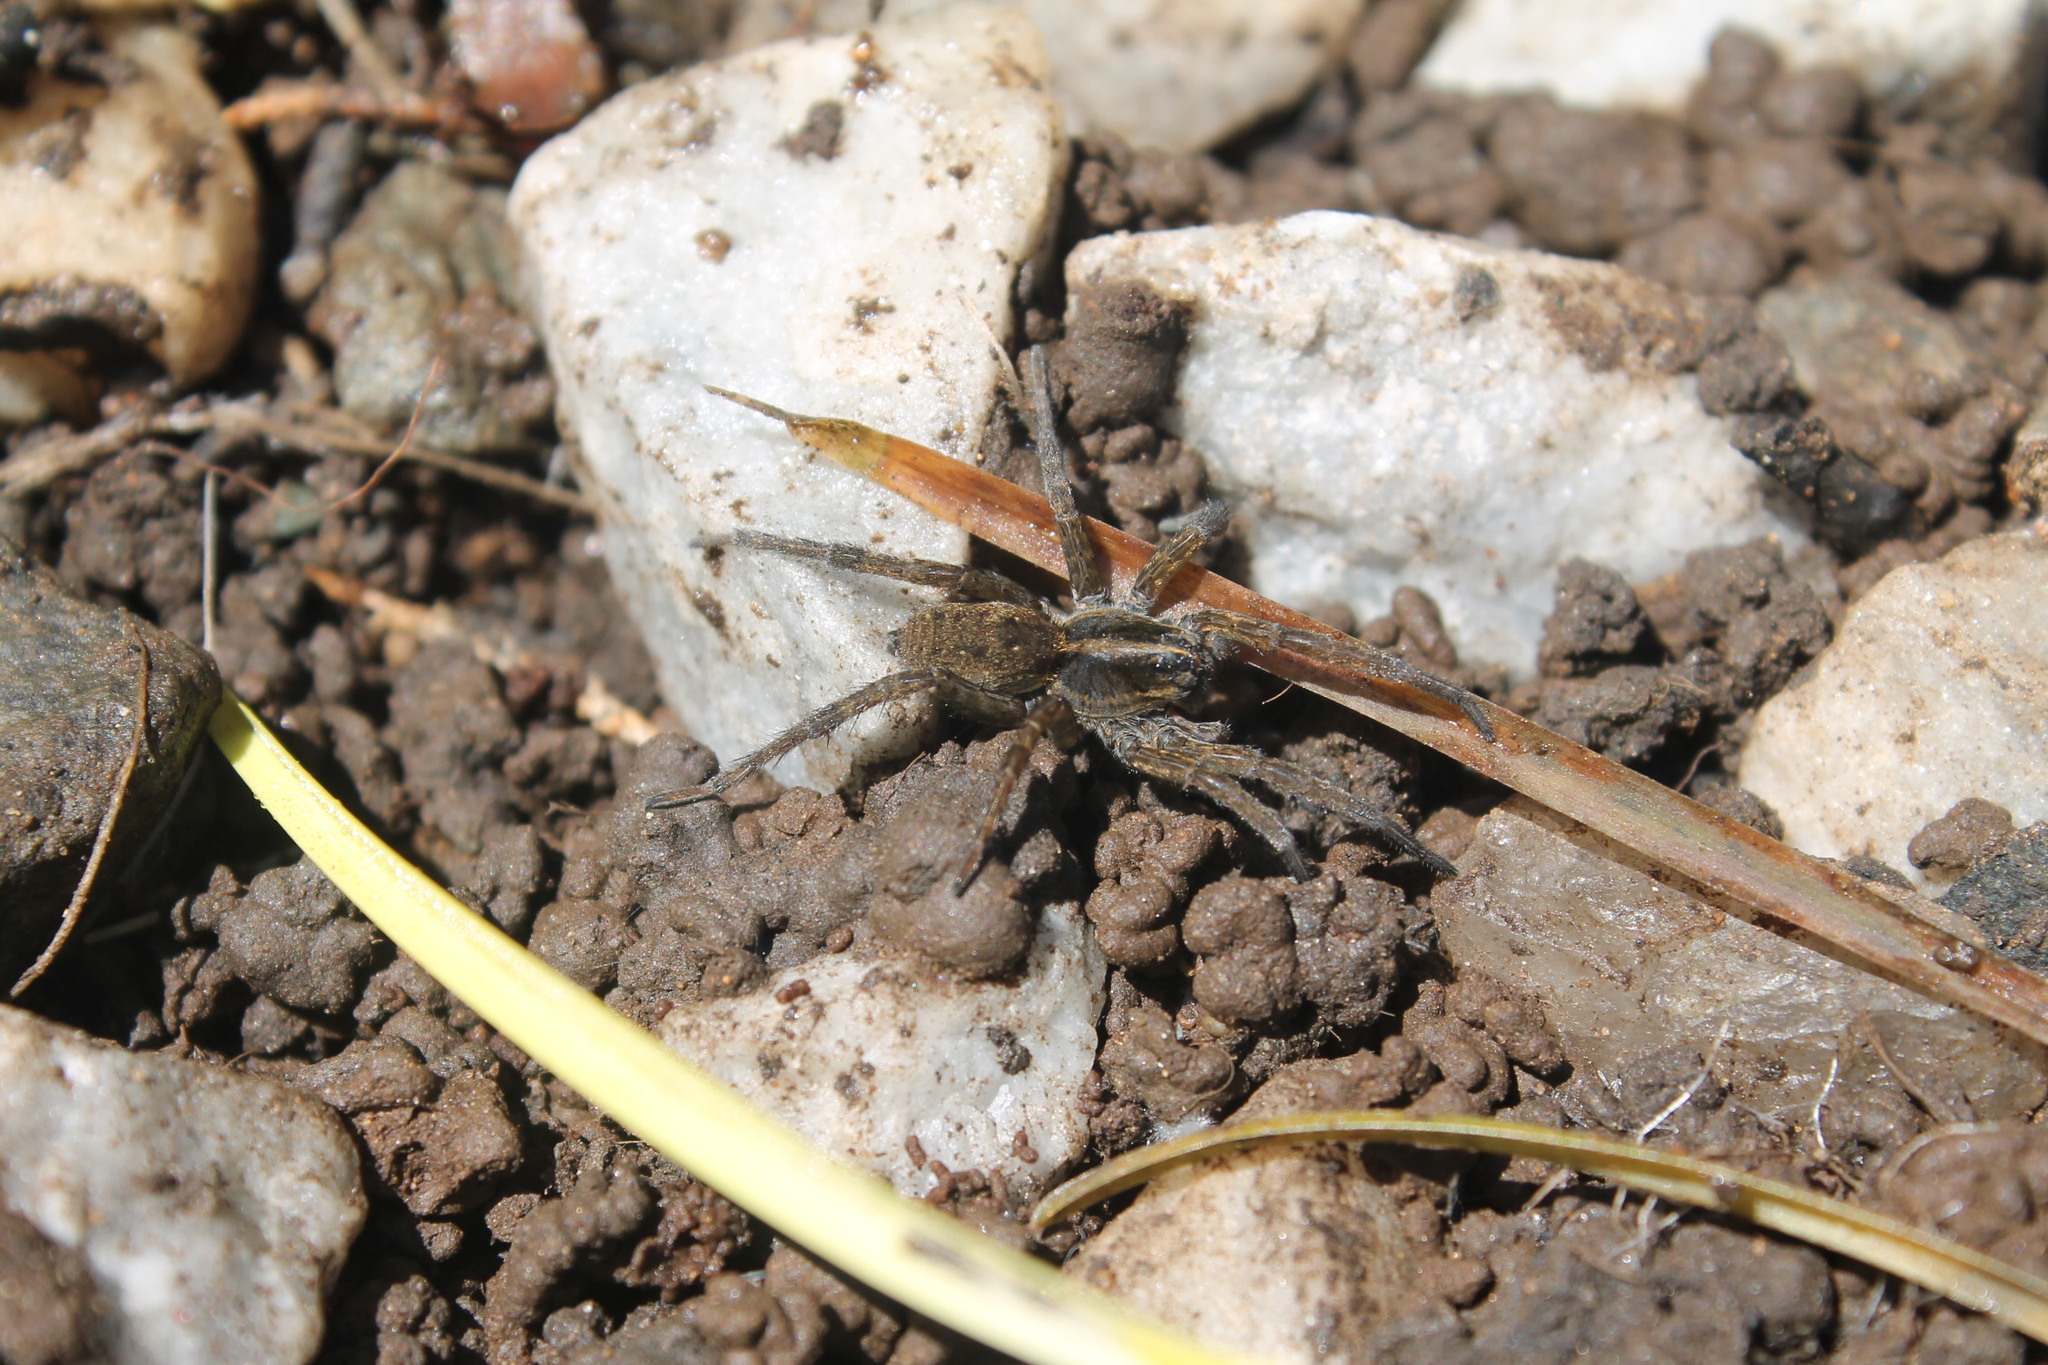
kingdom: Animalia
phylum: Arthropoda
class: Arachnida
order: Araneae
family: Lycosidae
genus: Tigrosa
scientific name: Tigrosa helluo
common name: Wetland giant wolf spider
